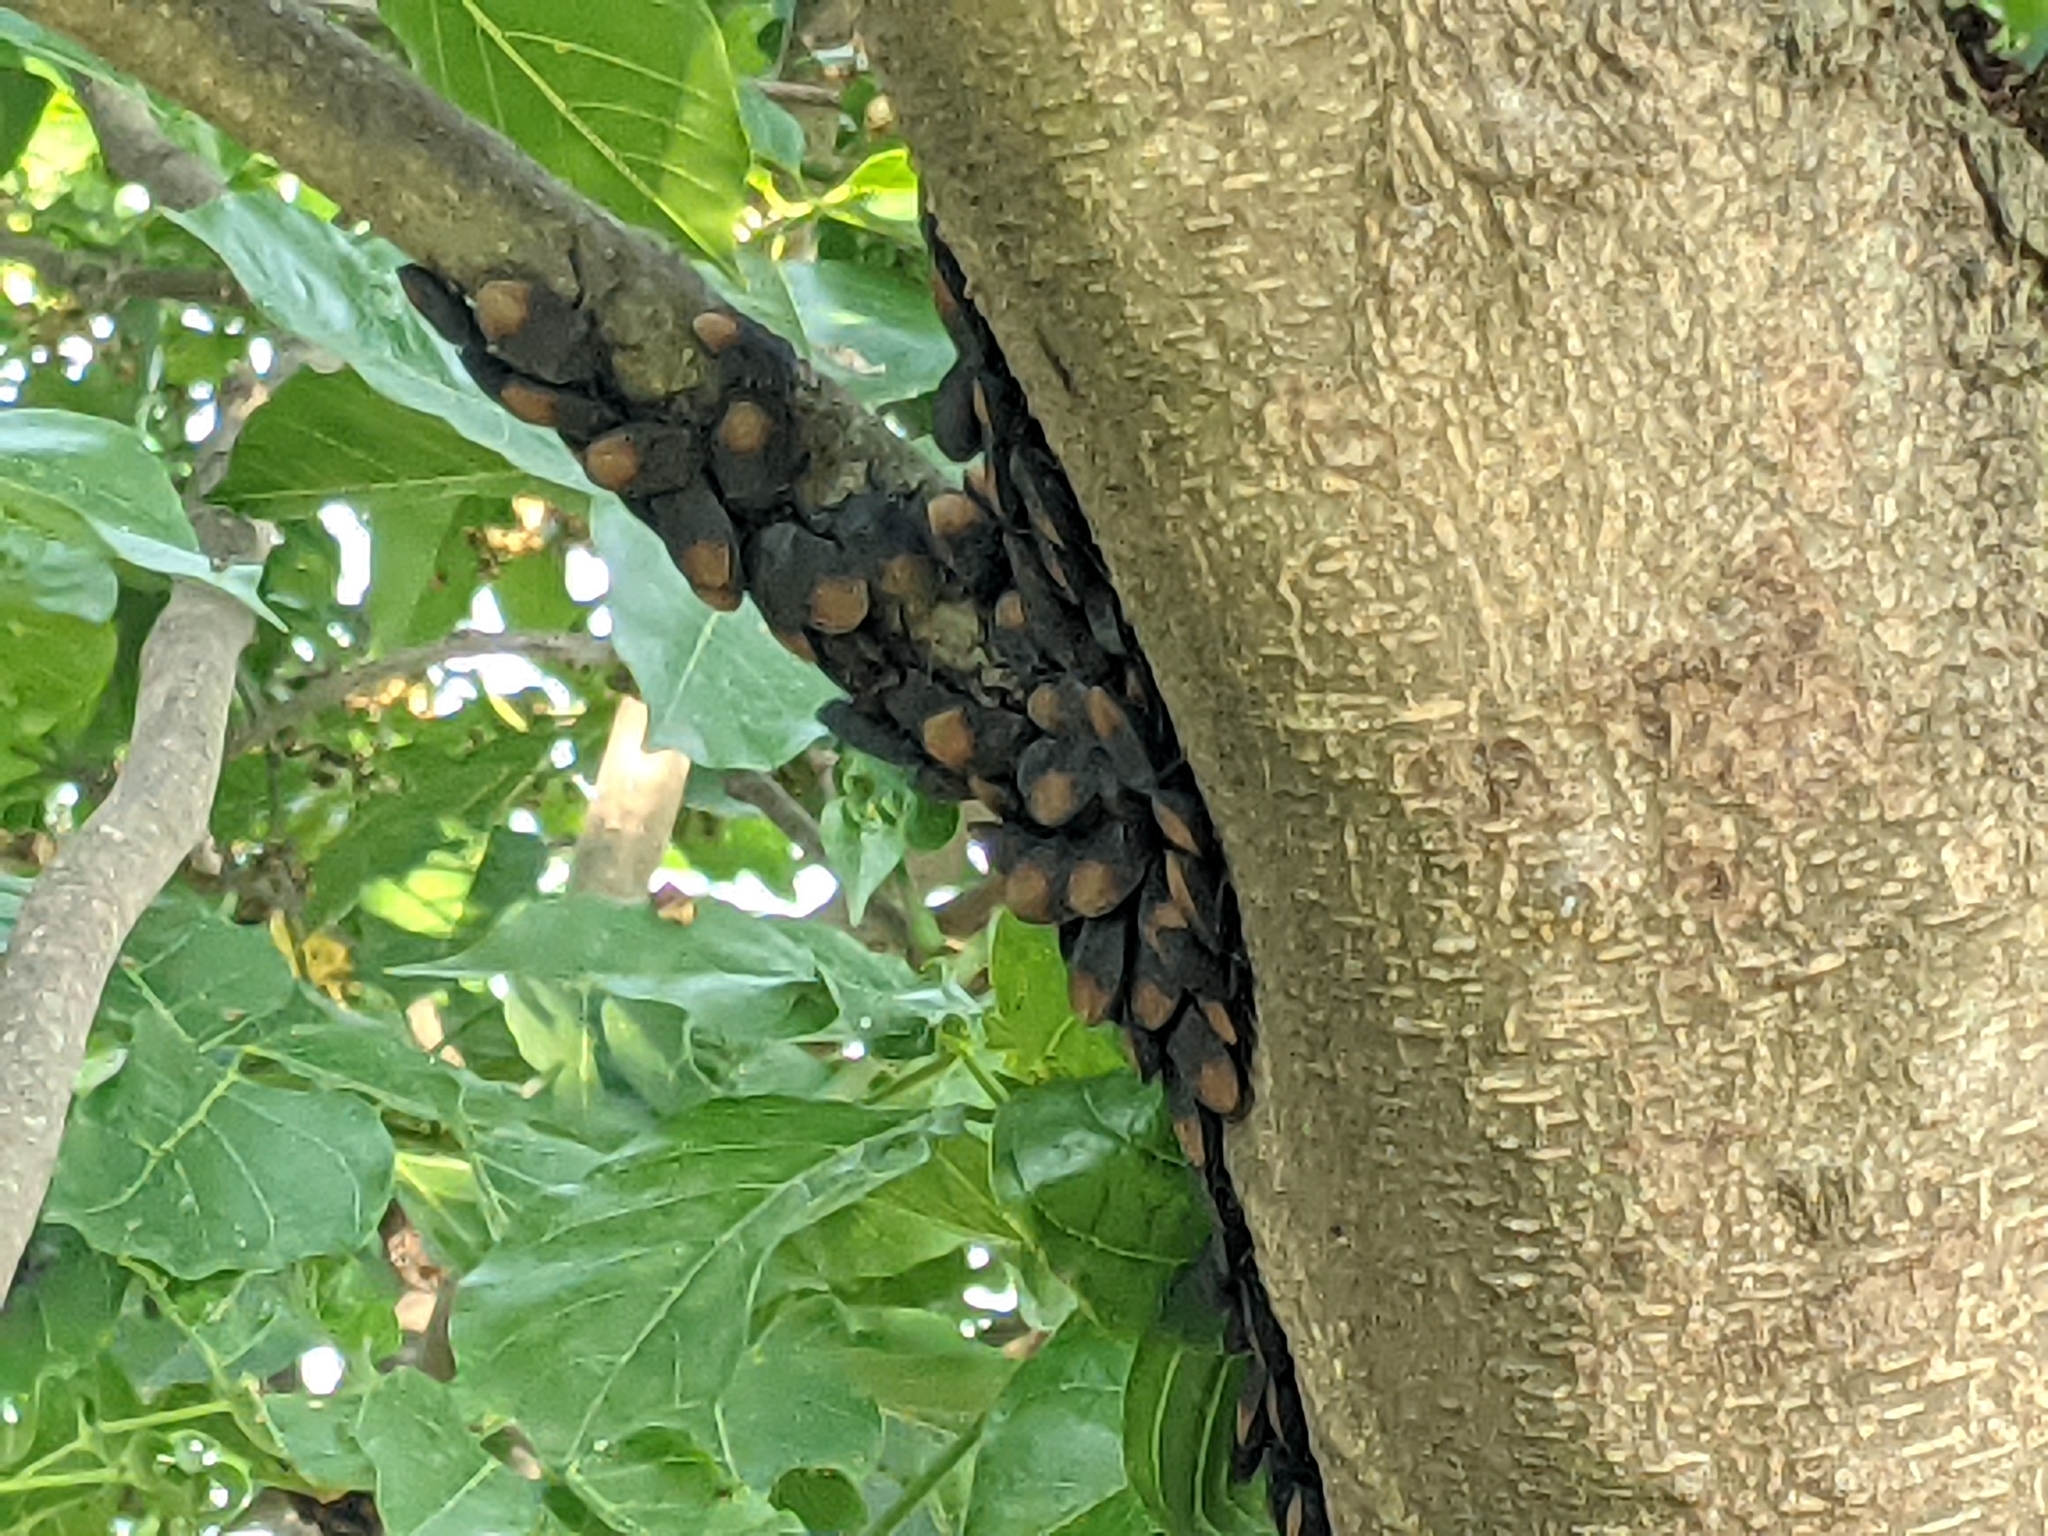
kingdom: Animalia
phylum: Arthropoda
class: Insecta
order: Hemiptera
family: Dinidoridae
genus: Cyclopelta
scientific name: Cyclopelta siccifolia
